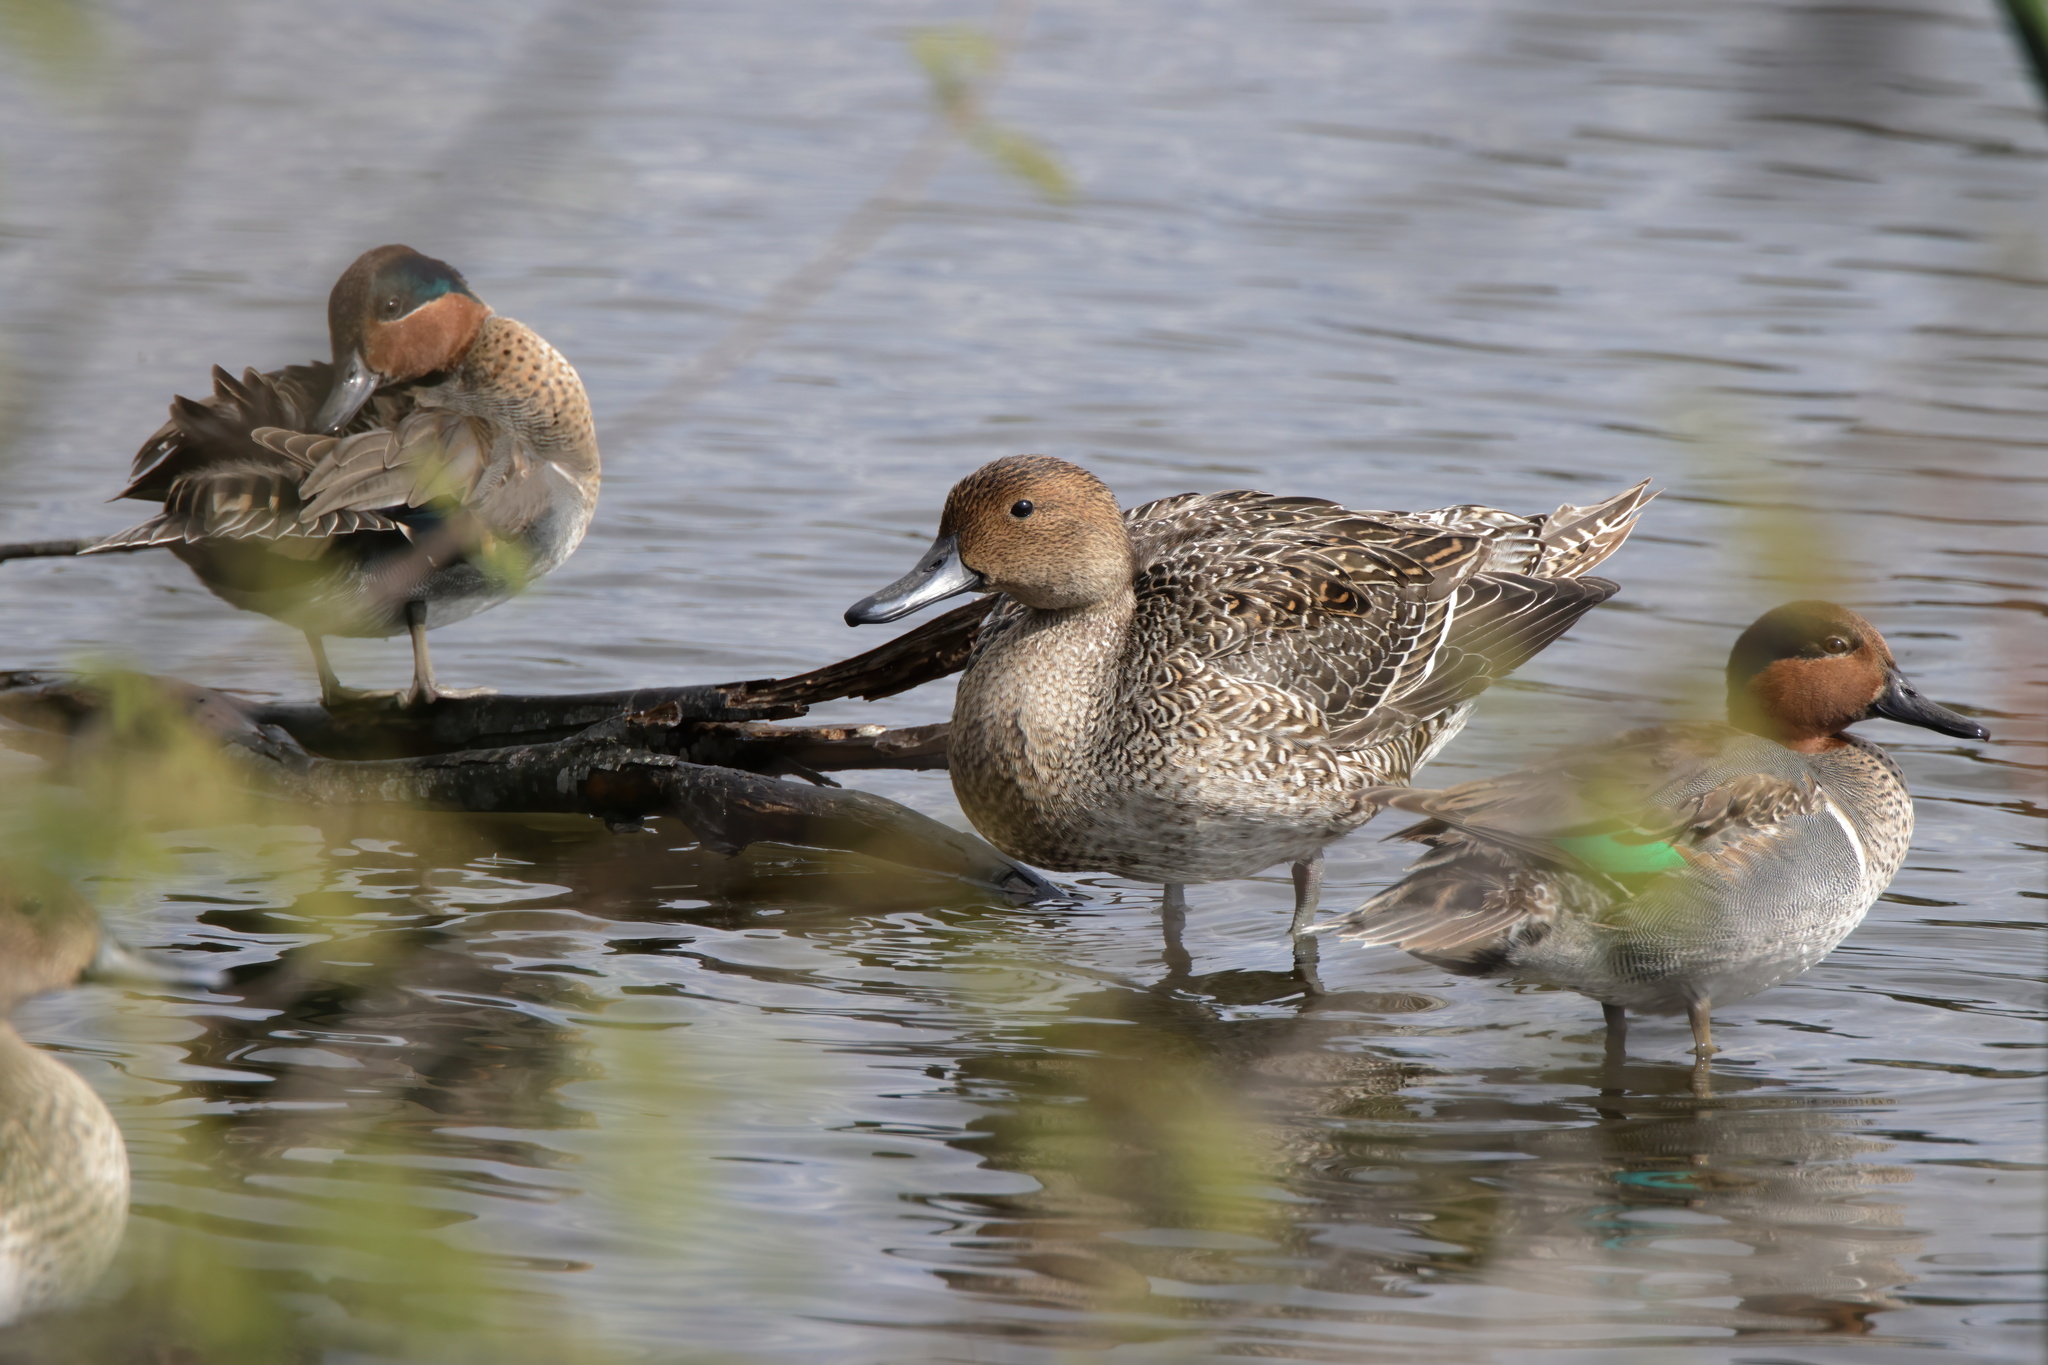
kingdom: Animalia
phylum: Chordata
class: Aves
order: Anseriformes
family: Anatidae
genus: Anas
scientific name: Anas acuta
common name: Northern pintail
